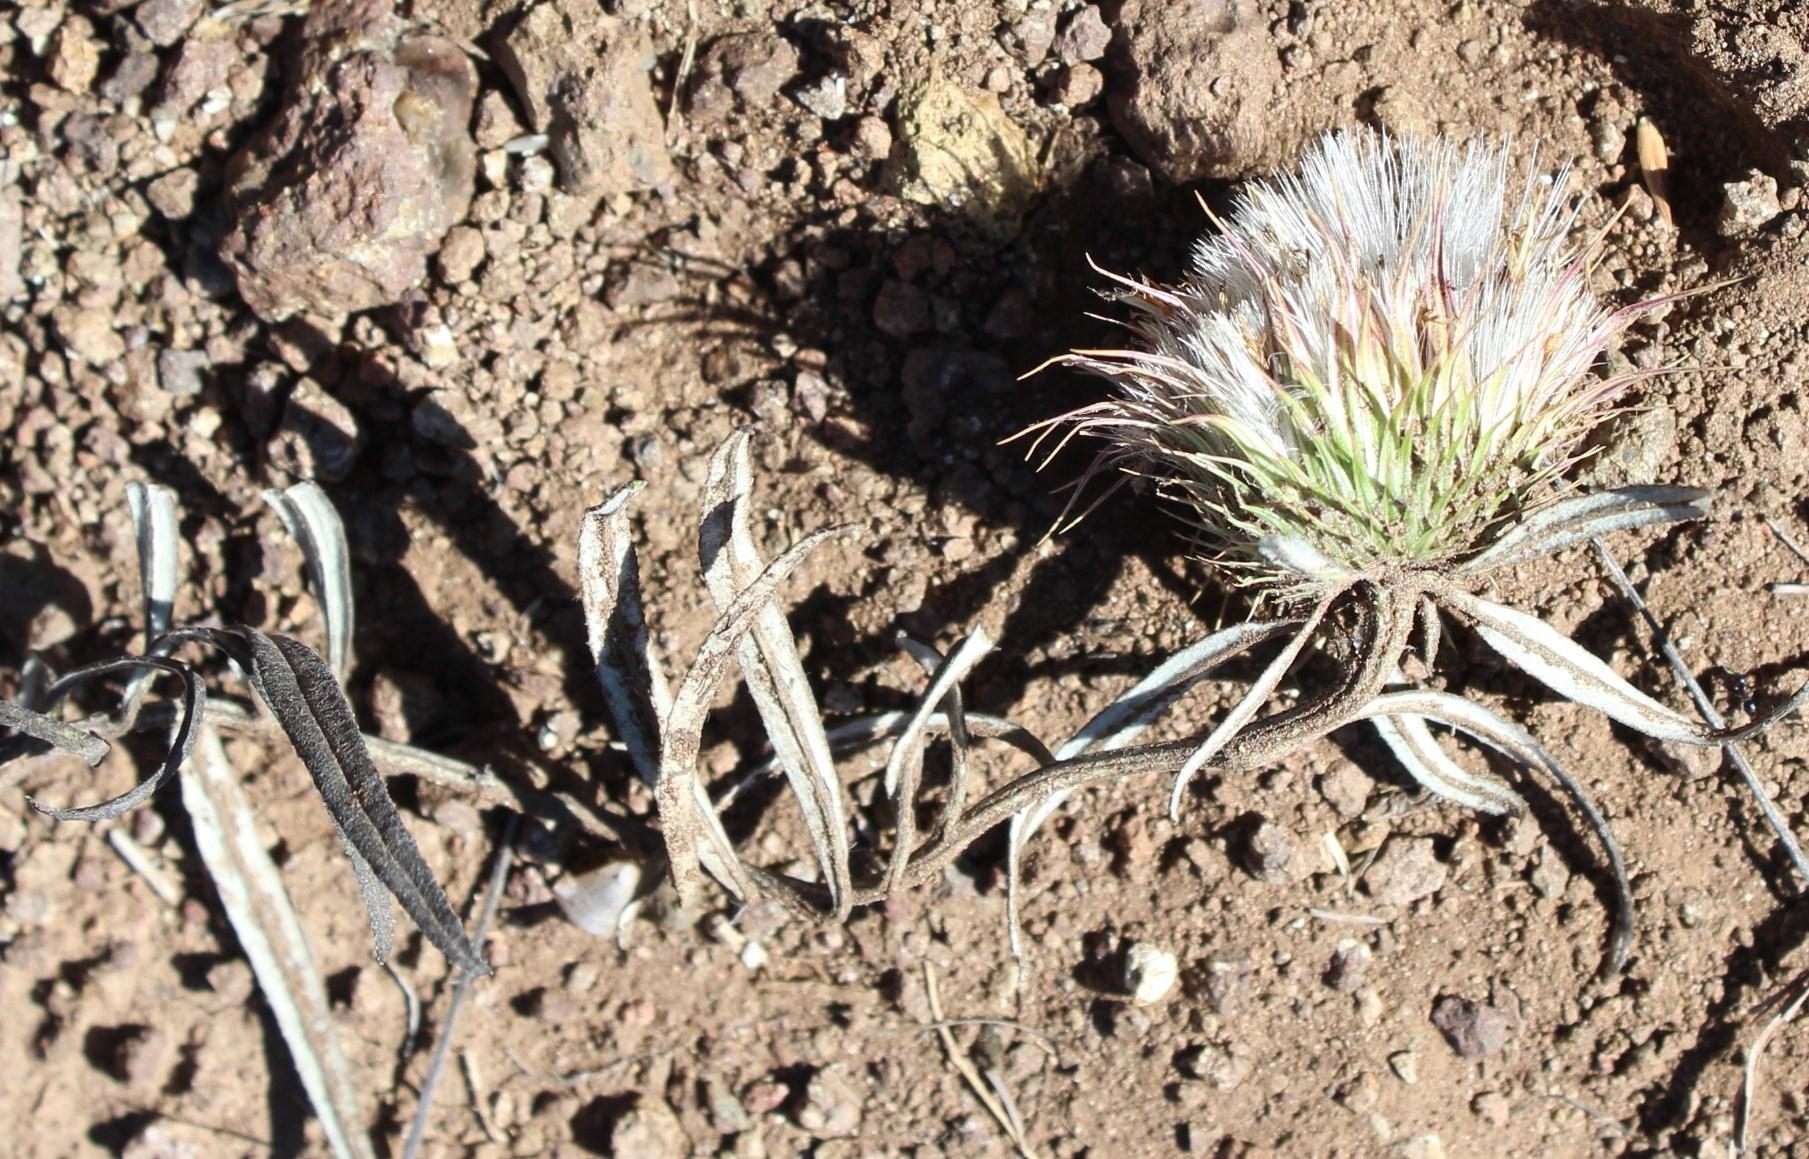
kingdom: Plantae
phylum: Tracheophyta
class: Magnoliopsida
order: Asterales
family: Asteraceae
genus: Dicoma
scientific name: Dicoma anomala
